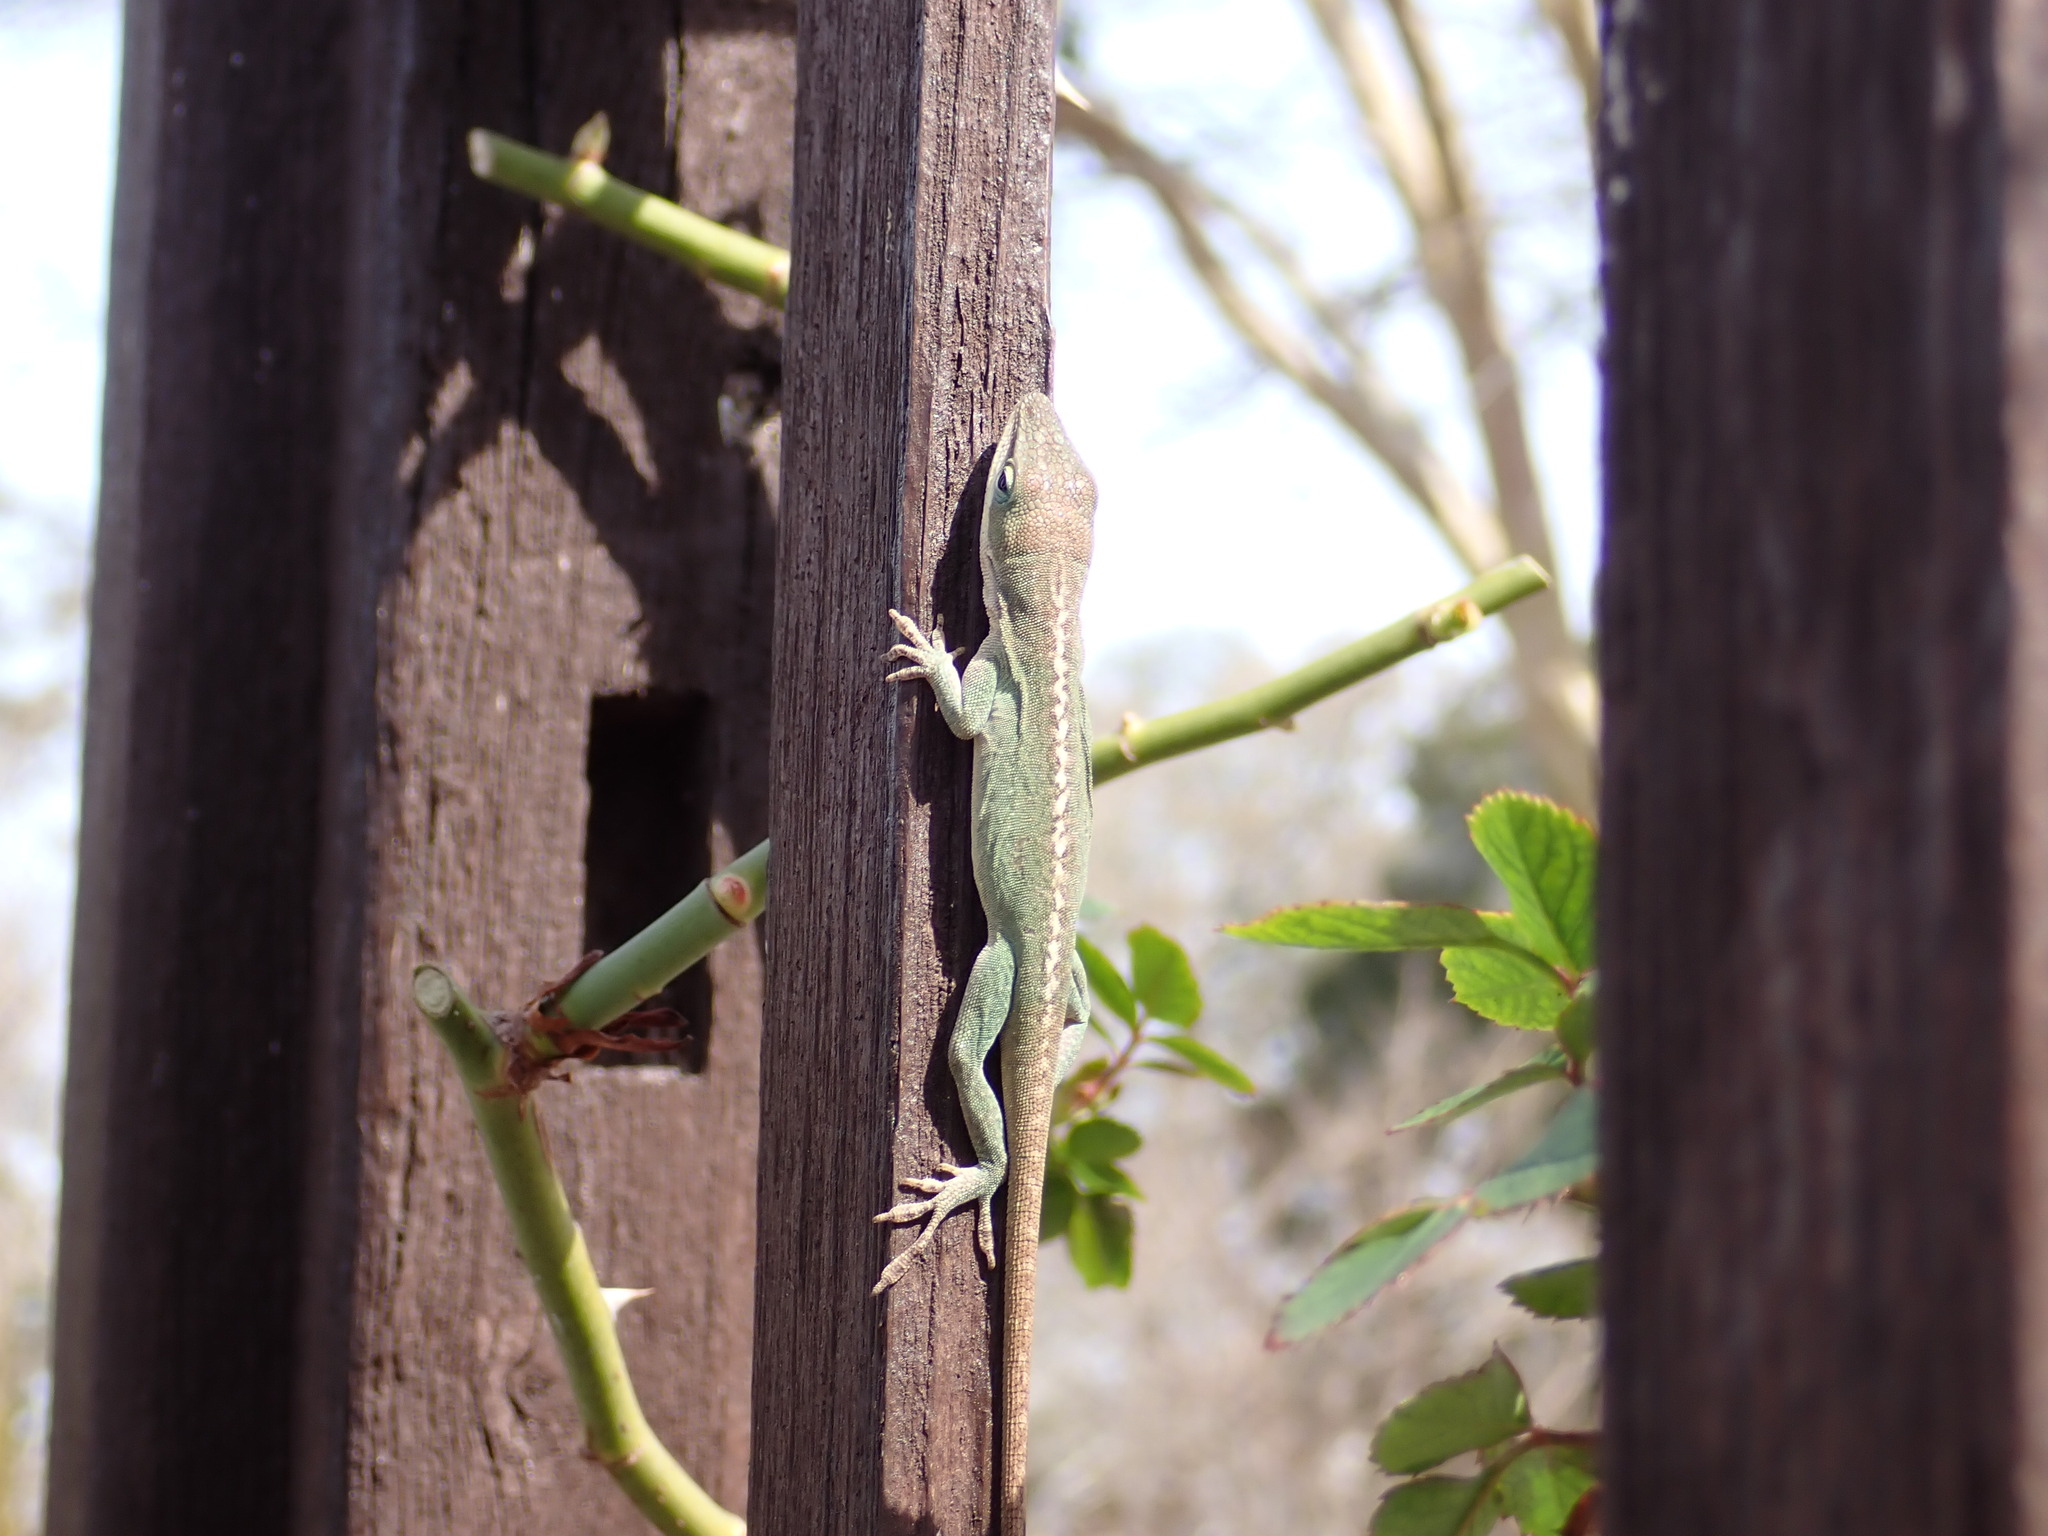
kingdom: Animalia
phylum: Chordata
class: Squamata
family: Dactyloidae
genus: Anolis
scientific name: Anolis carolinensis
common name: Green anole
